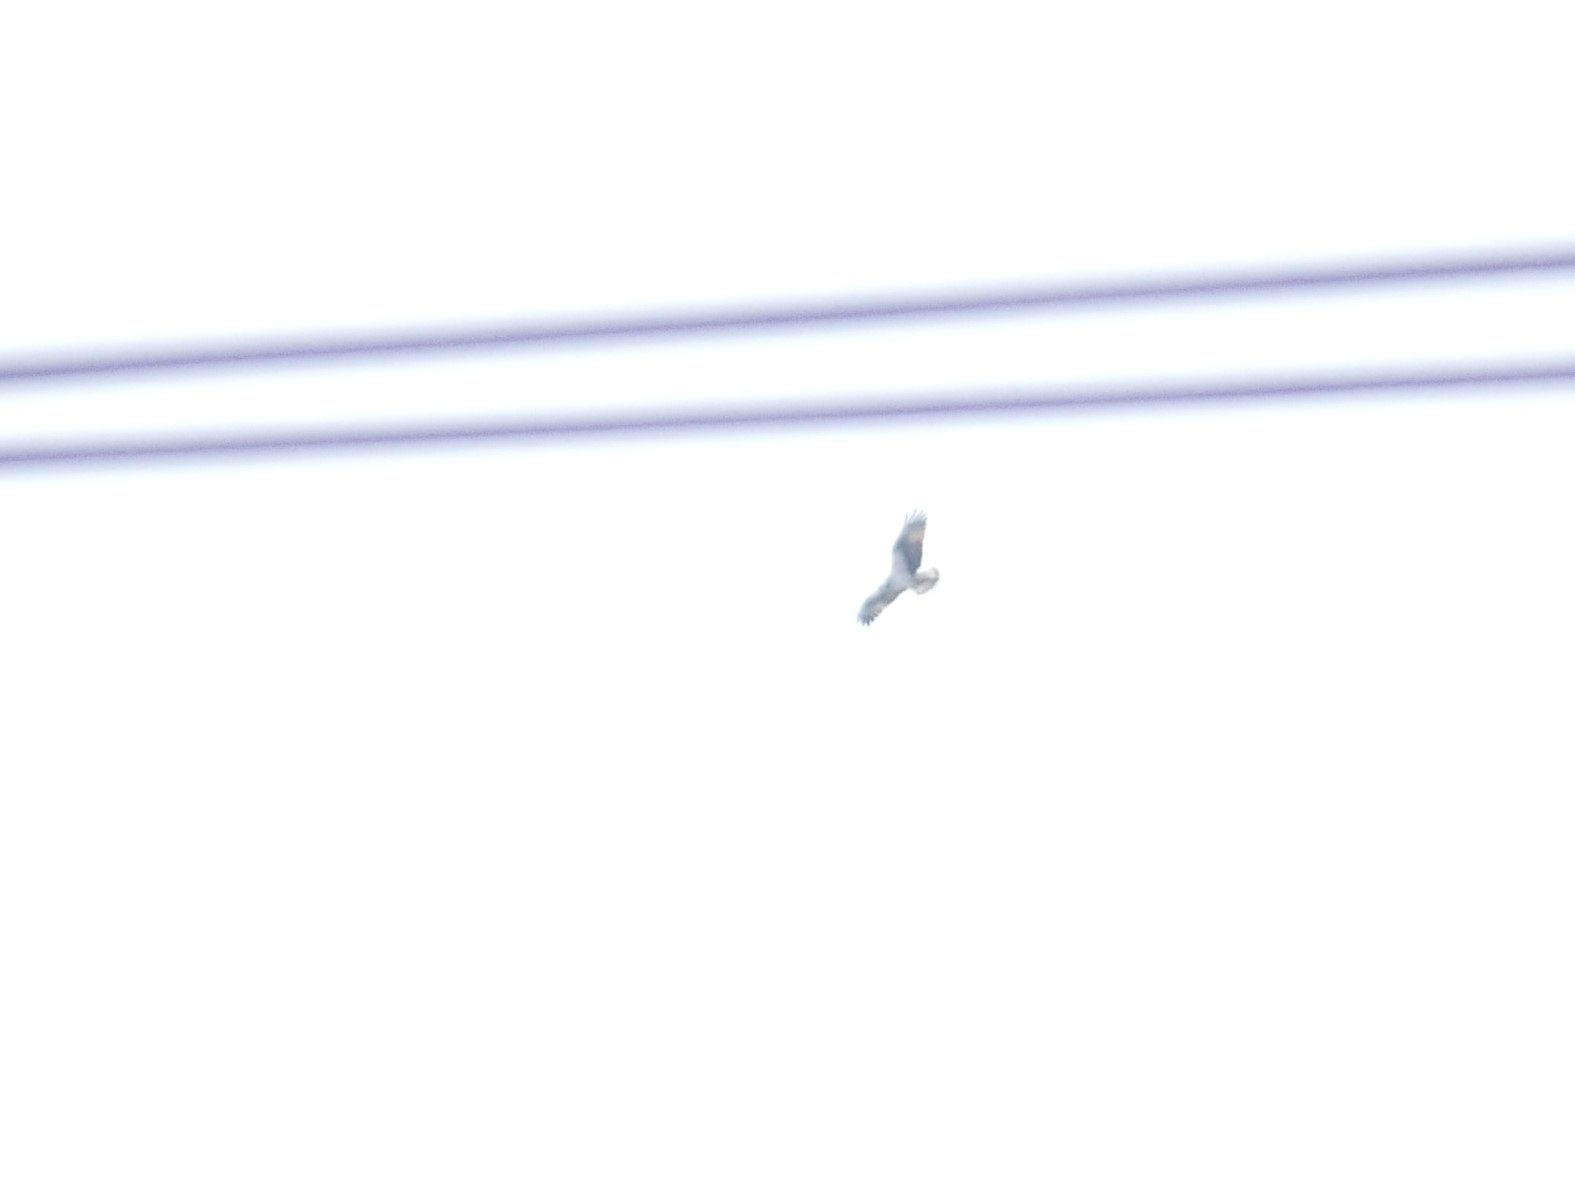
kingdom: Animalia
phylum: Chordata
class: Aves
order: Accipitriformes
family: Pandionidae
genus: Pandion
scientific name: Pandion haliaetus
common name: Osprey
